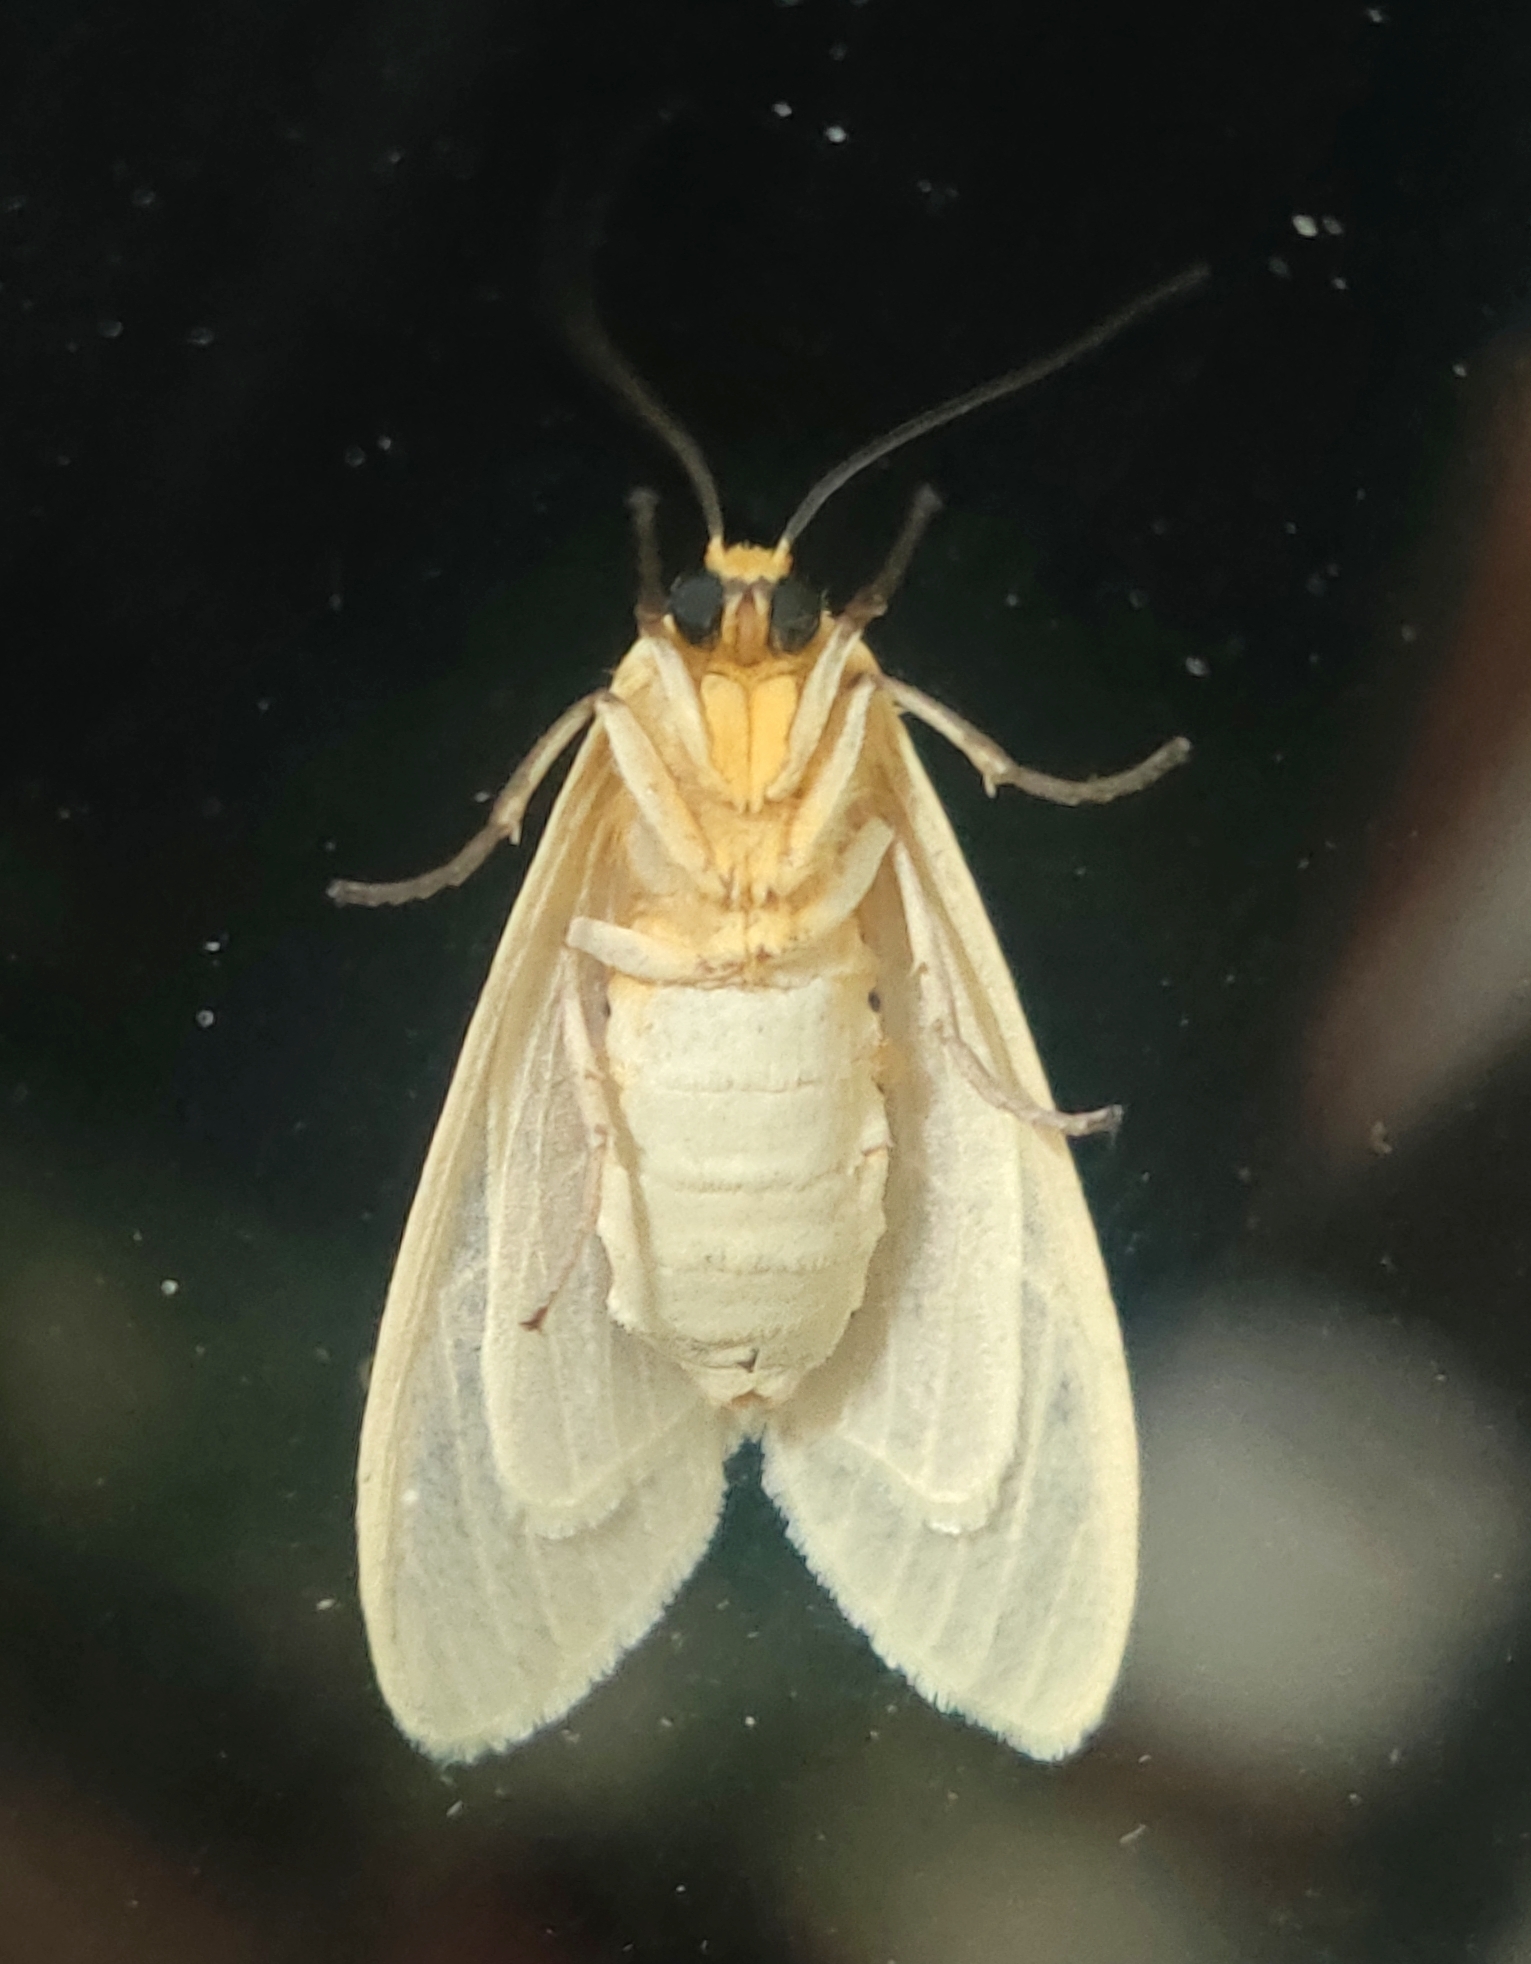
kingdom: Animalia
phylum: Arthropoda
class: Insecta
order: Lepidoptera
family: Erebidae
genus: Pareuchaetes
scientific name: Pareuchaetes pseudoinsulata
